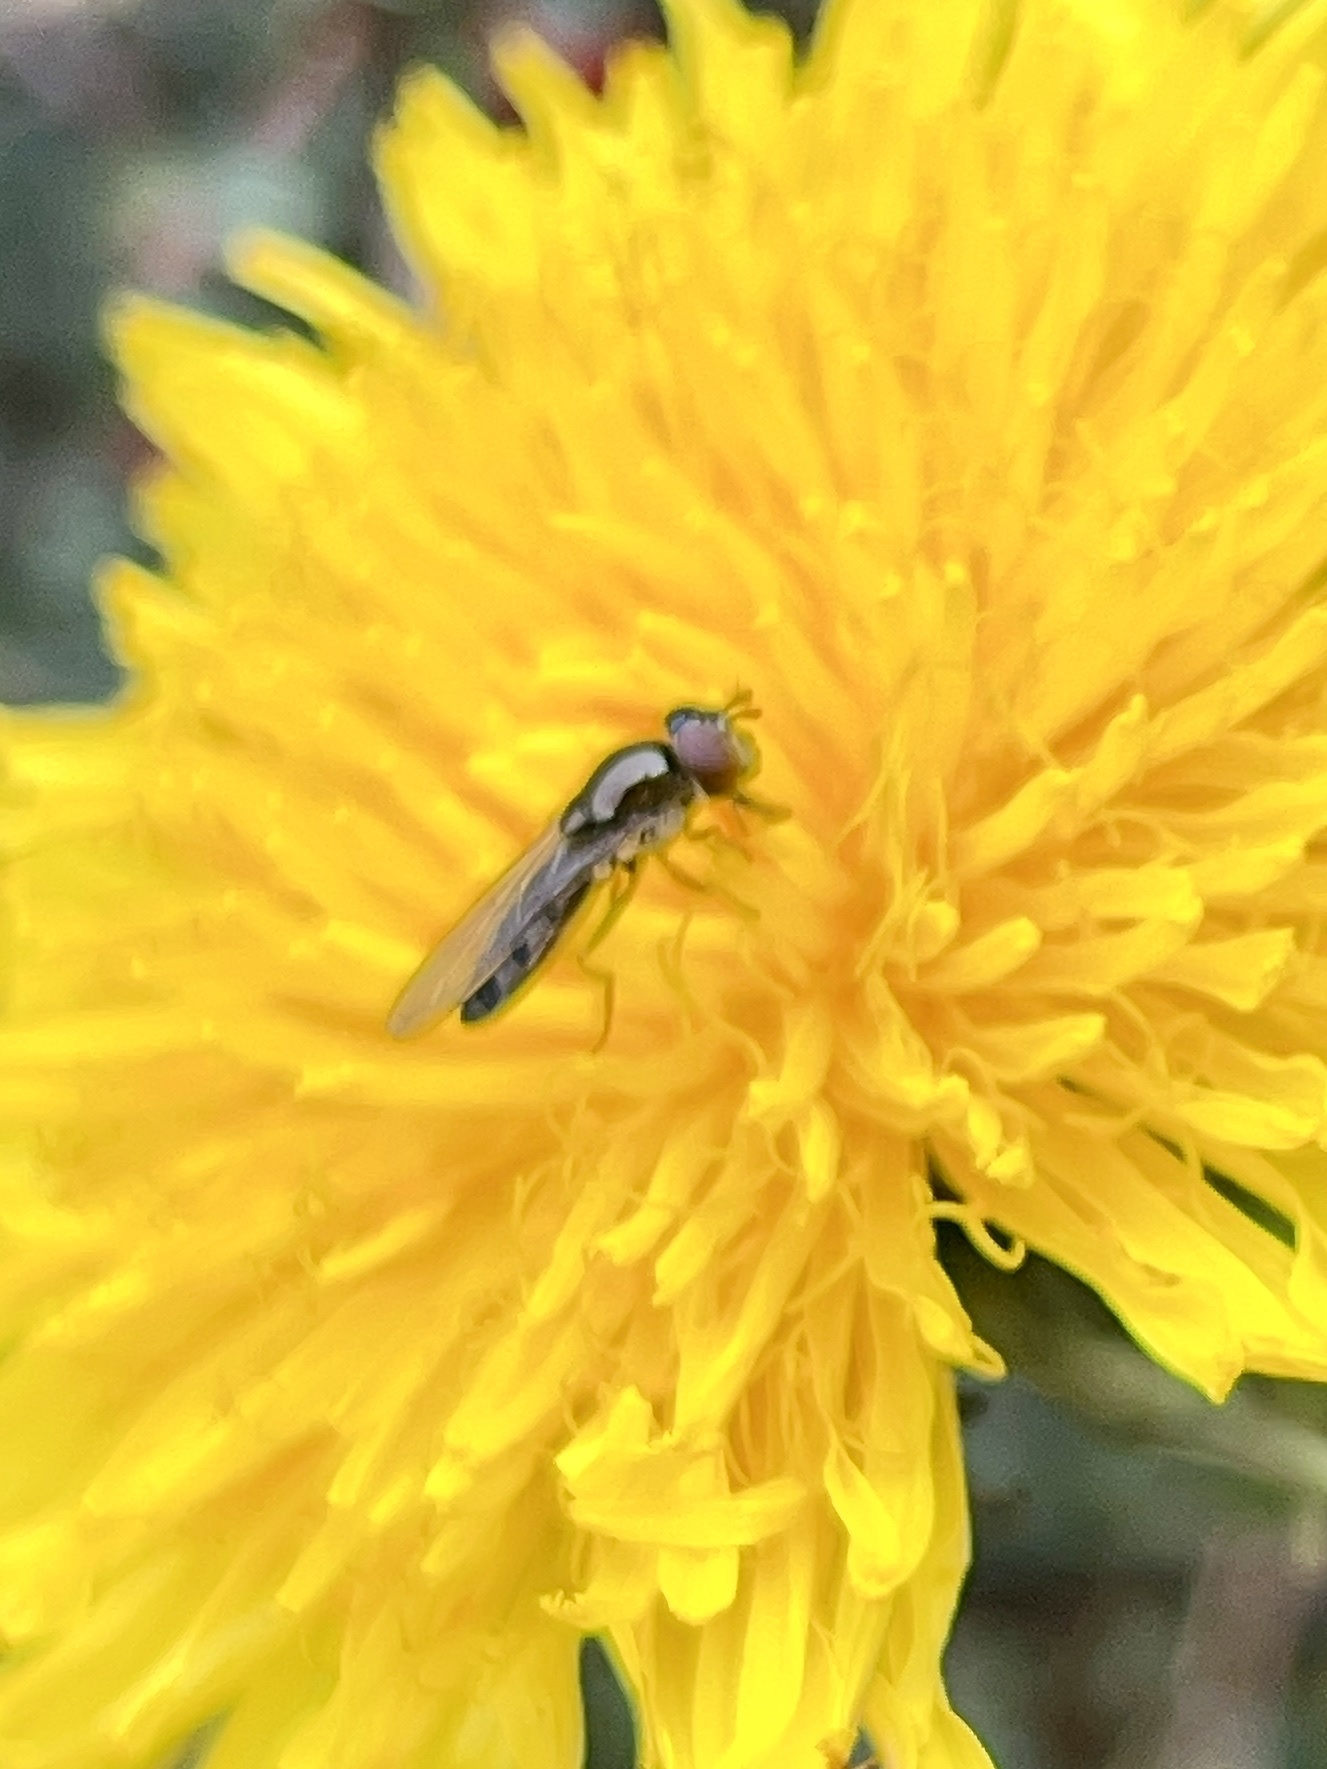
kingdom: Animalia
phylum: Arthropoda
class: Insecta
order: Diptera
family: Syrphidae
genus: Platycheirus
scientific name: Platycheirus albimanus
